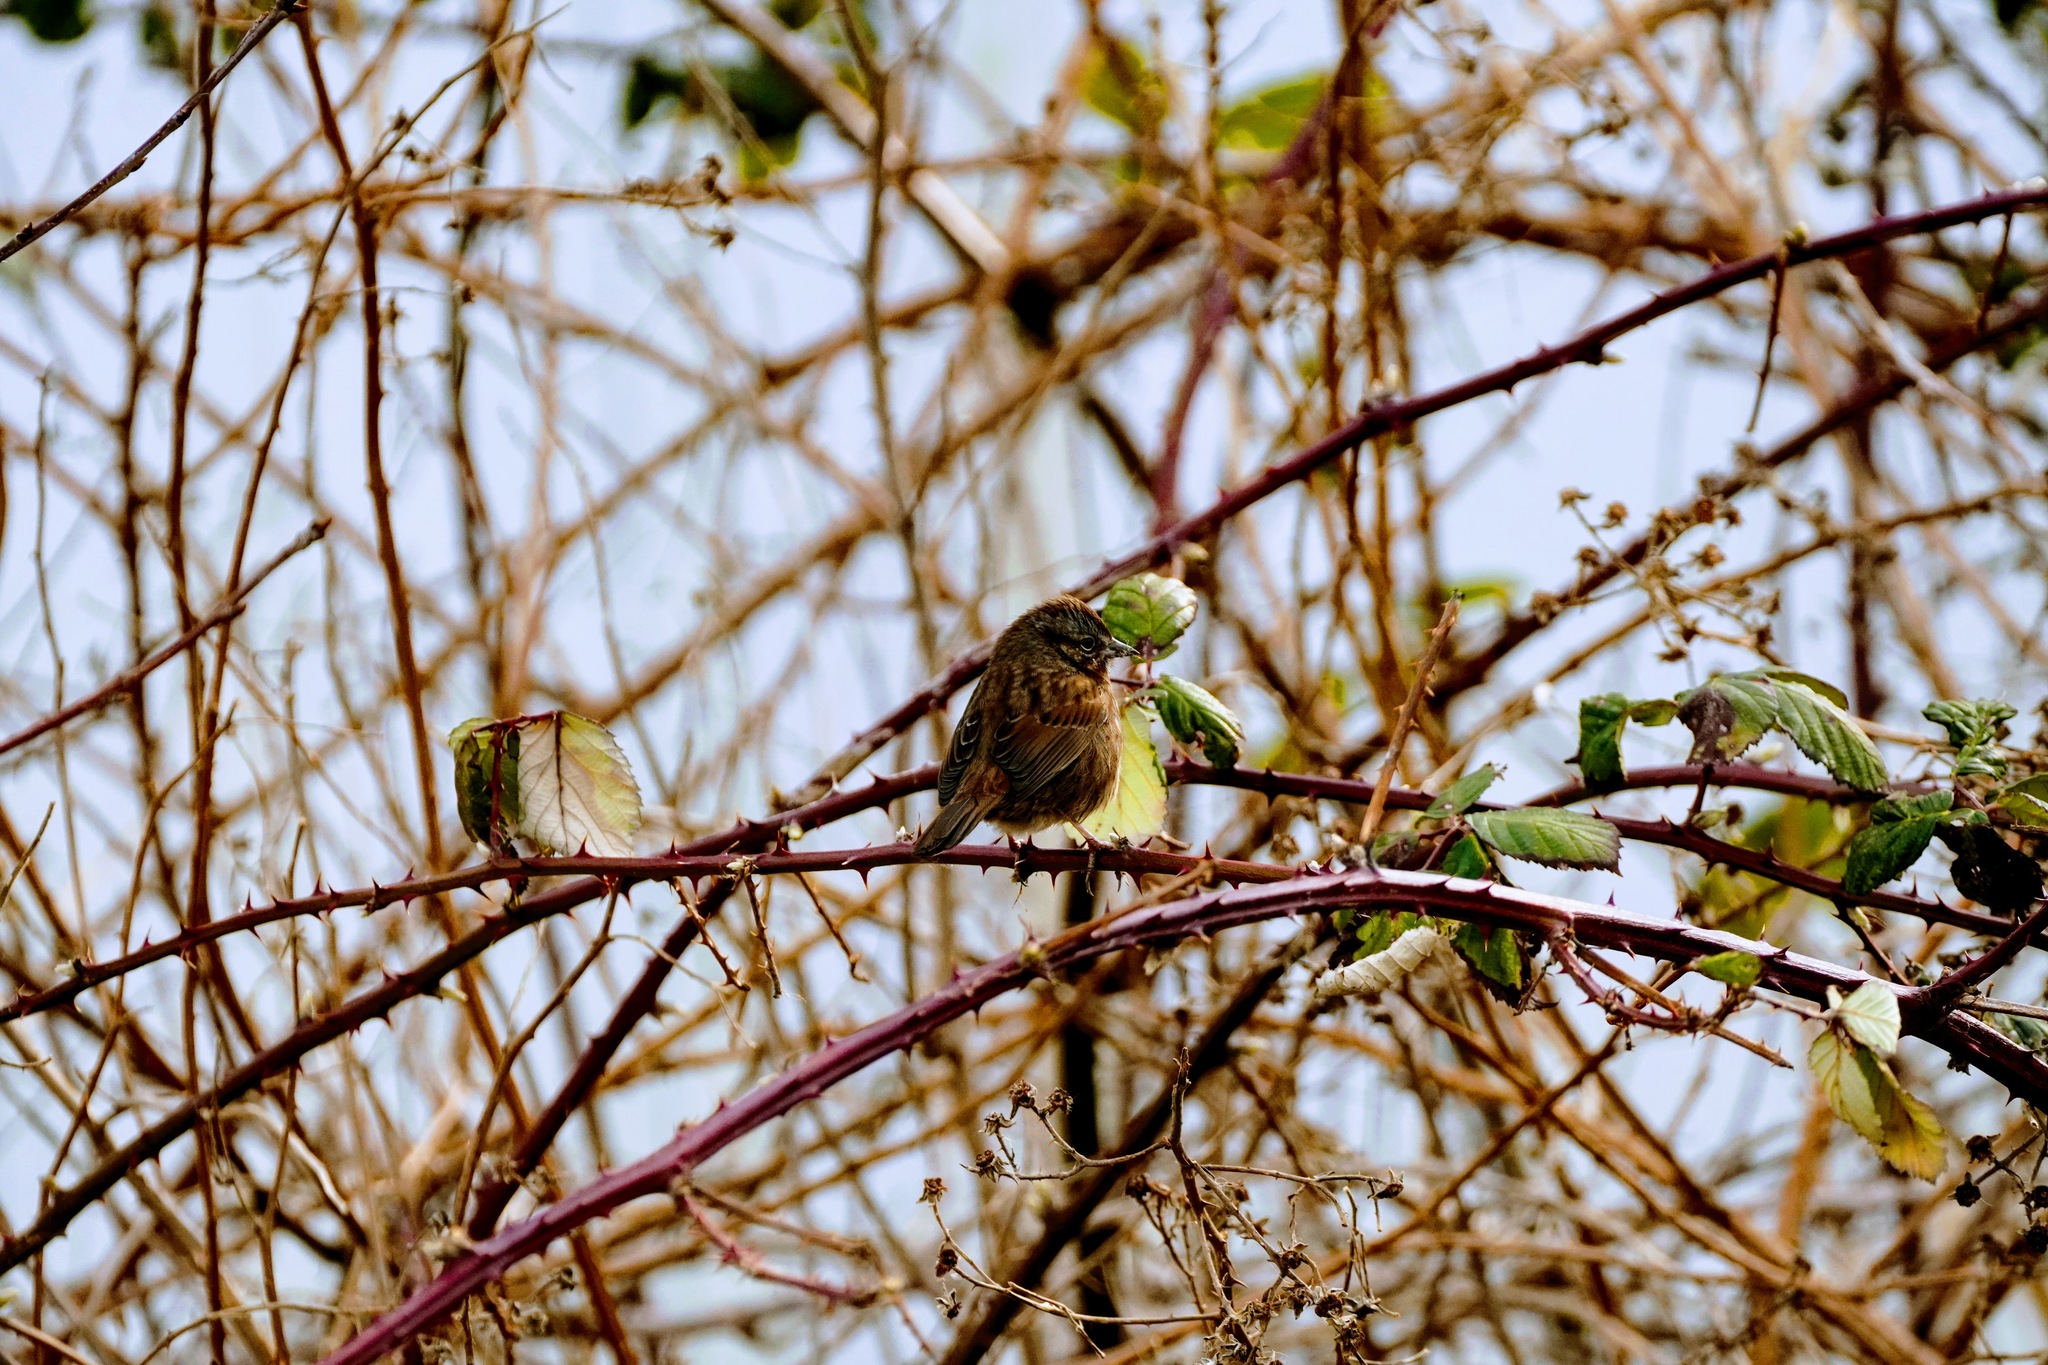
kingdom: Animalia
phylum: Chordata
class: Aves
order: Passeriformes
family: Passerellidae
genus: Melospiza
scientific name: Melospiza melodia
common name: Song sparrow
